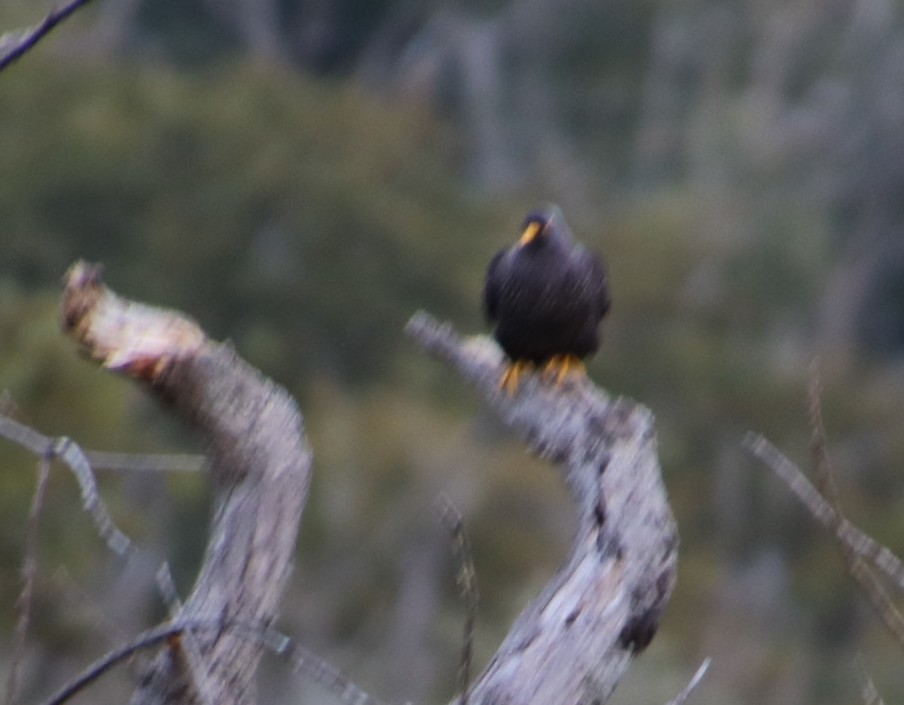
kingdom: Animalia
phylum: Chordata
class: Aves
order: Columbiformes
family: Columbidae
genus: Columba
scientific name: Columba arquatrix
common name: African olive pigeon
